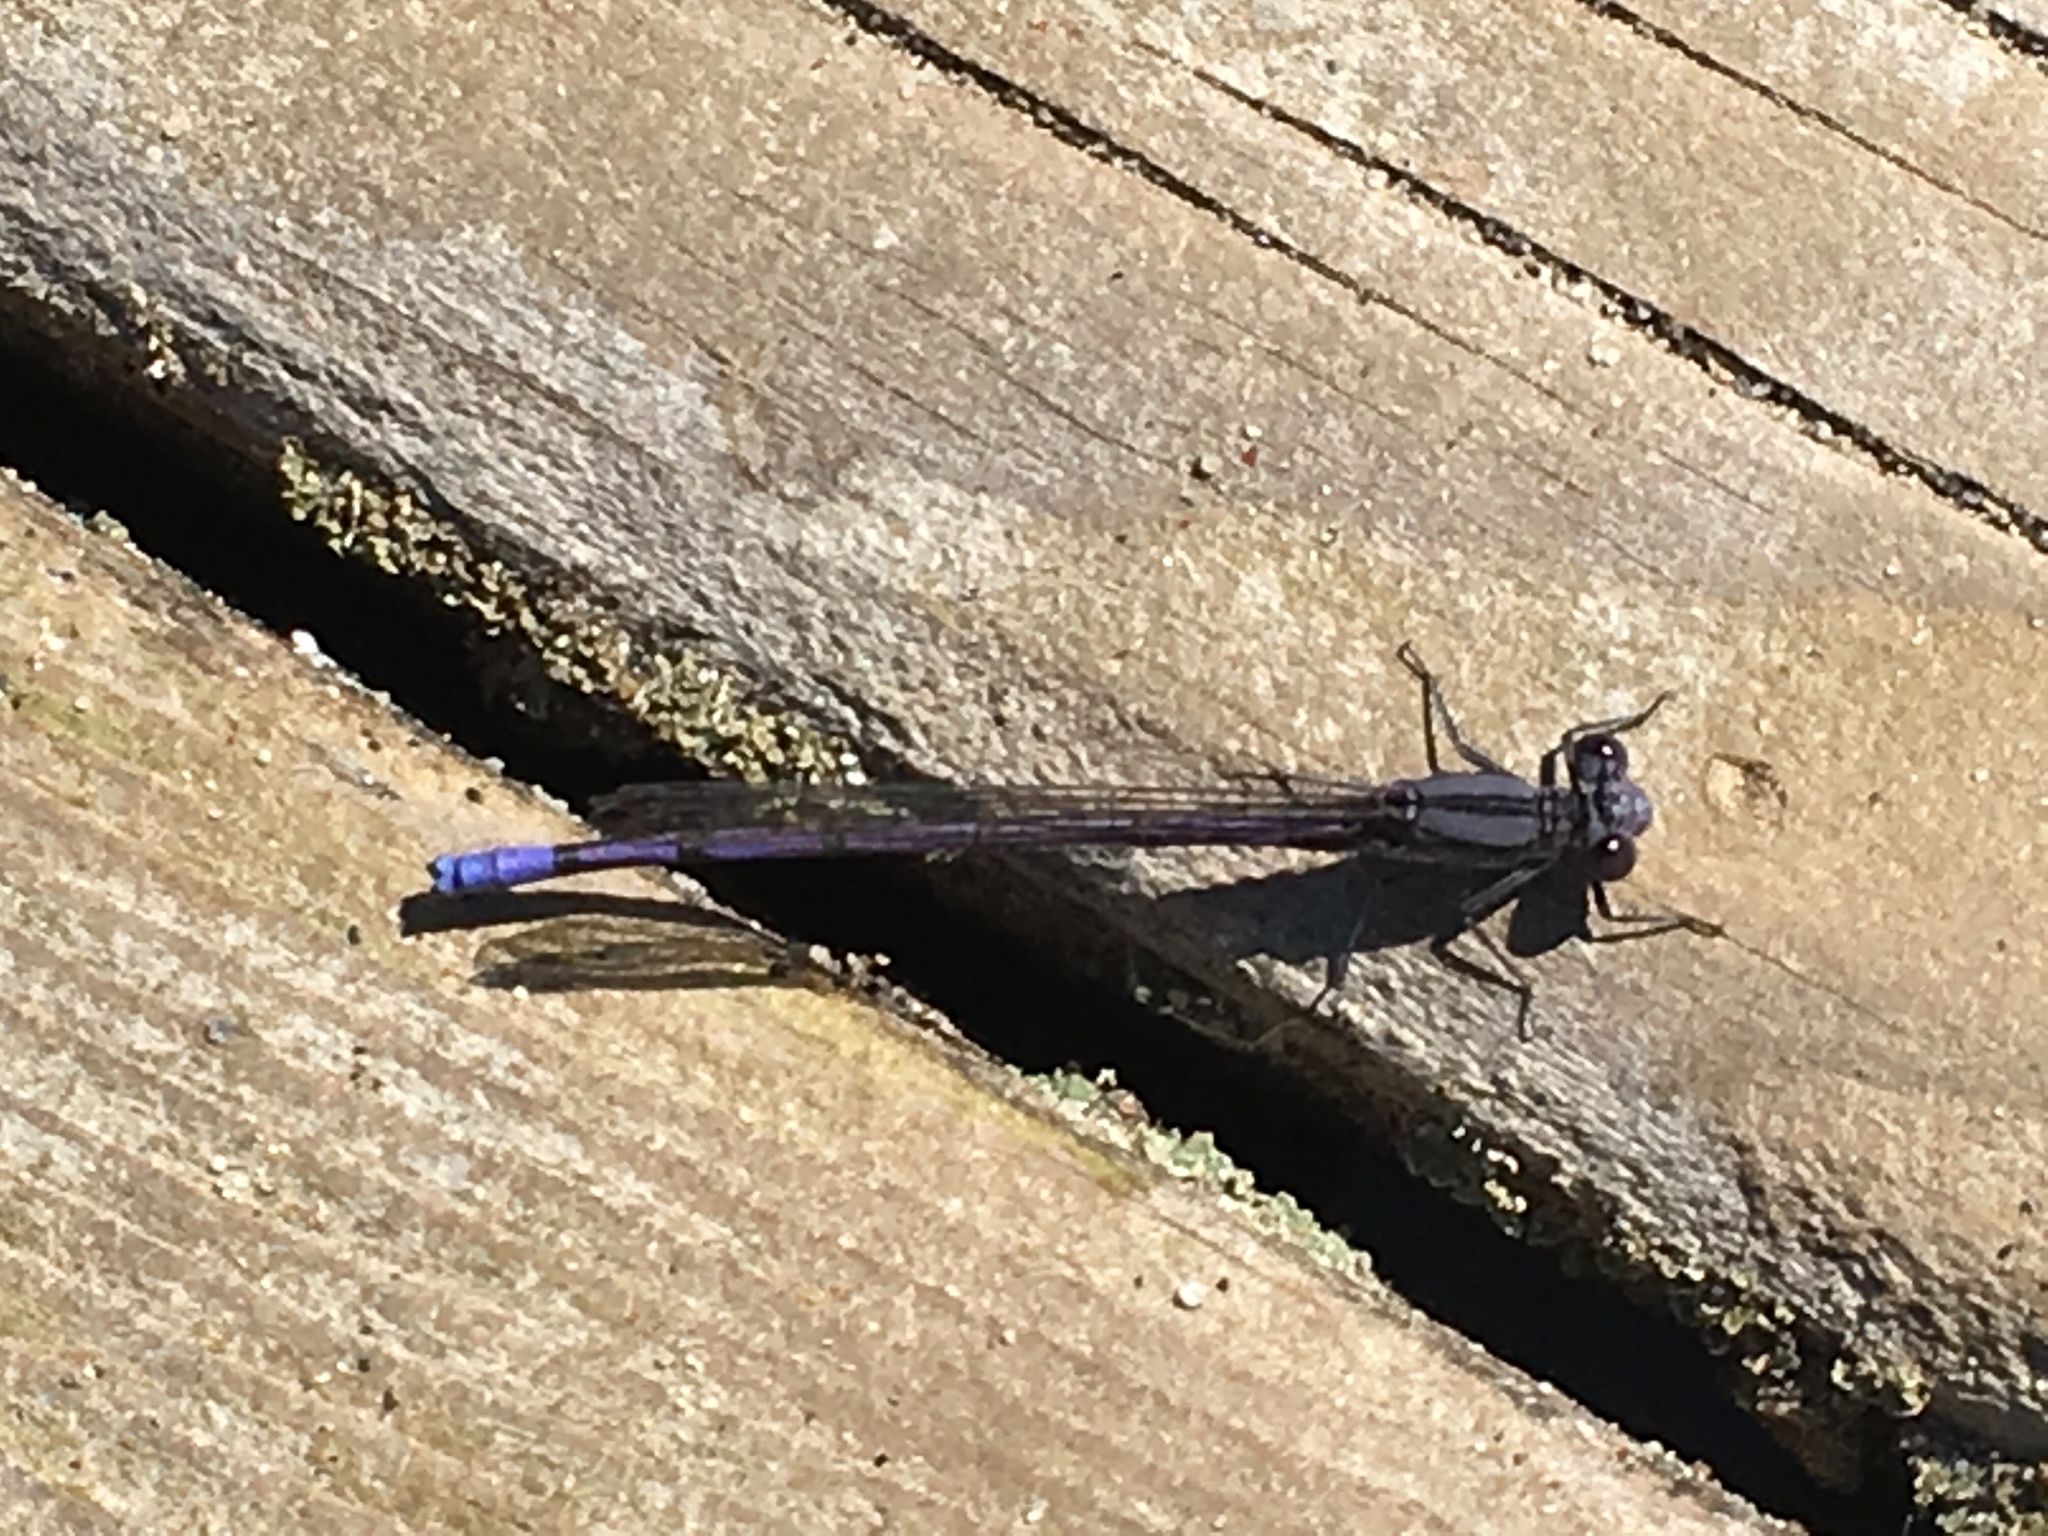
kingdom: Animalia
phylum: Arthropoda
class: Insecta
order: Odonata
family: Coenagrionidae
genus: Argia
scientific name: Argia fumipennis
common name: Variable dancer
